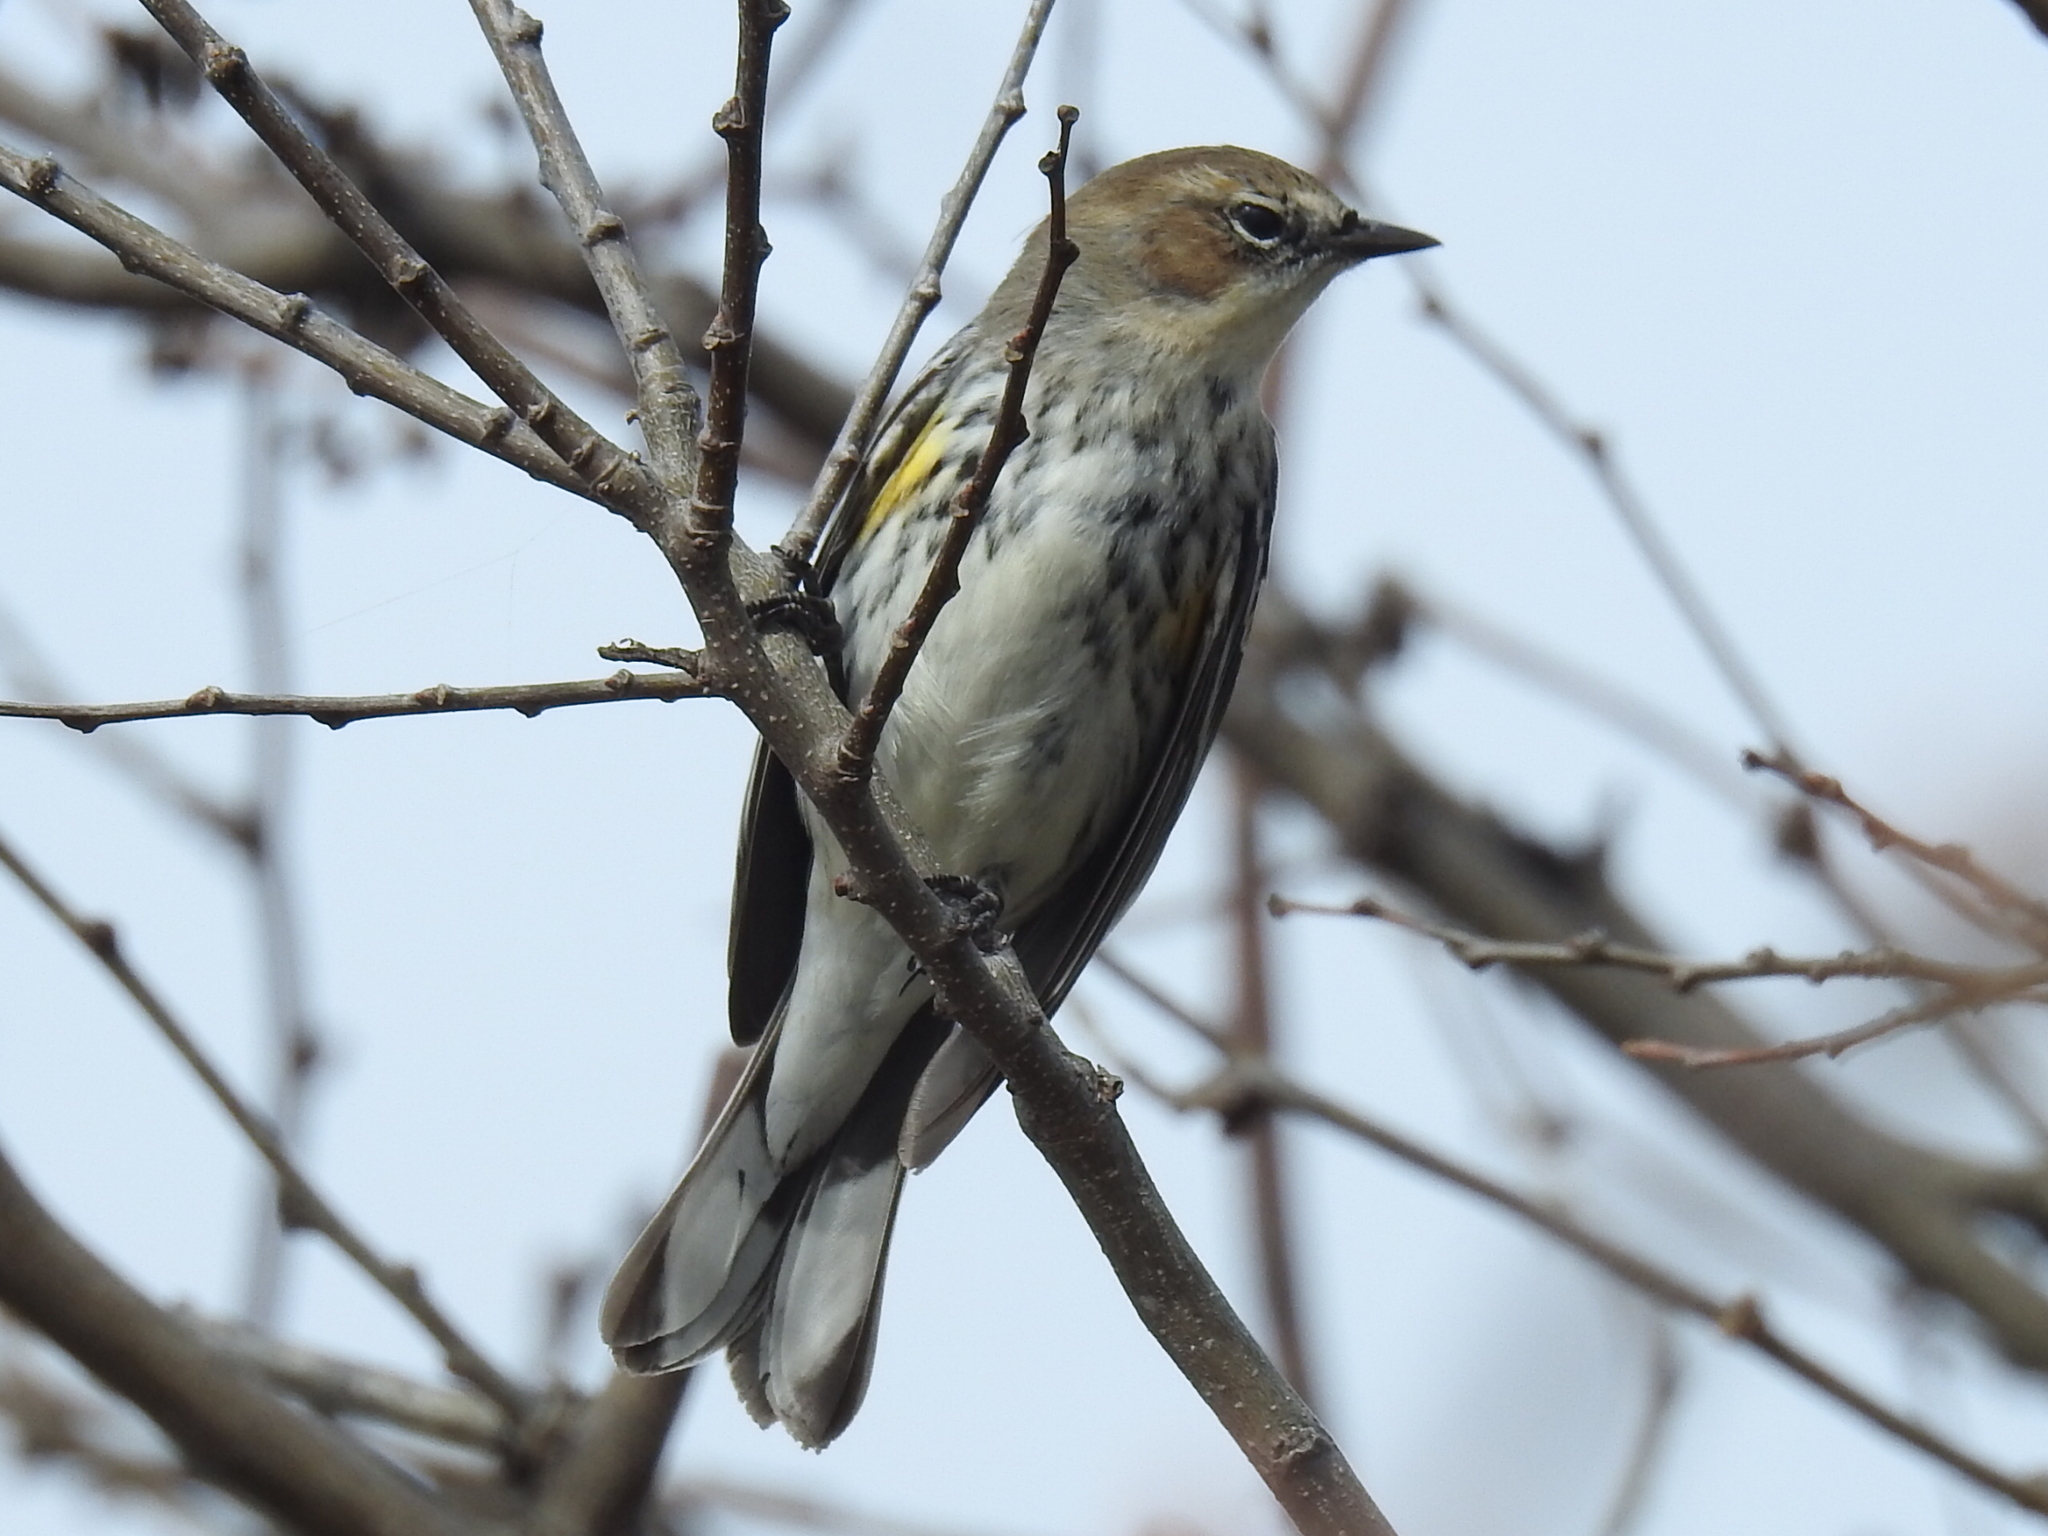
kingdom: Animalia
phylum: Chordata
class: Aves
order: Passeriformes
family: Parulidae
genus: Setophaga
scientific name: Setophaga coronata
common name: Myrtle warbler
